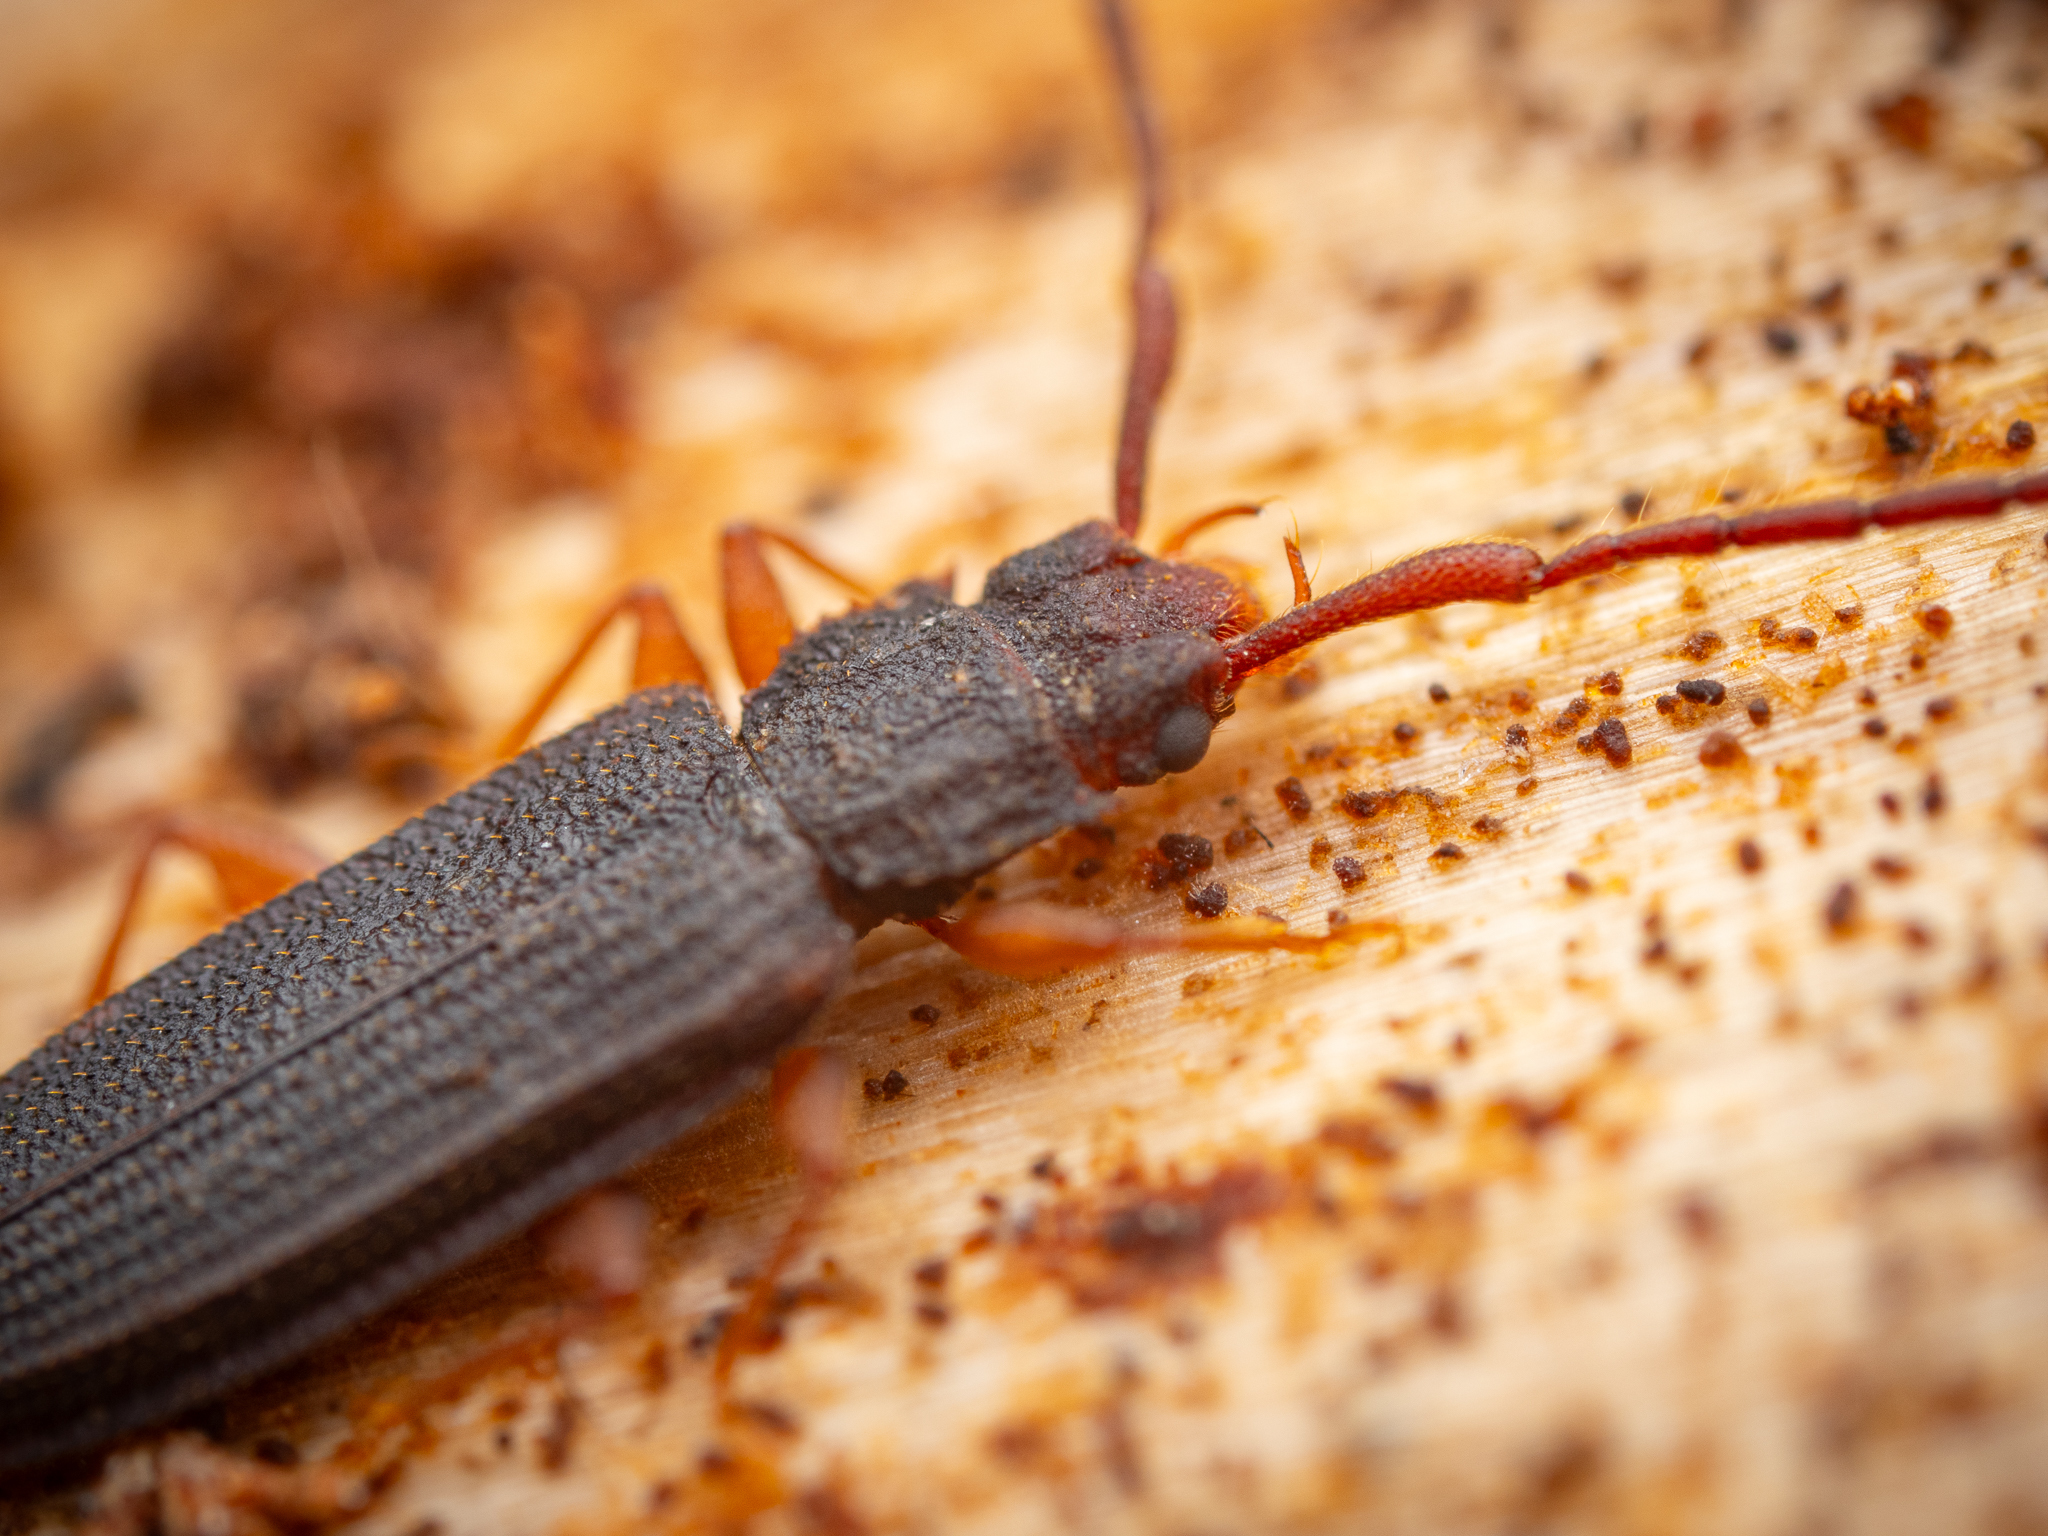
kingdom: Animalia
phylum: Arthropoda
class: Insecta
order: Coleoptera
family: Silvanidae
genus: Uleiota
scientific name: Uleiota planatus
